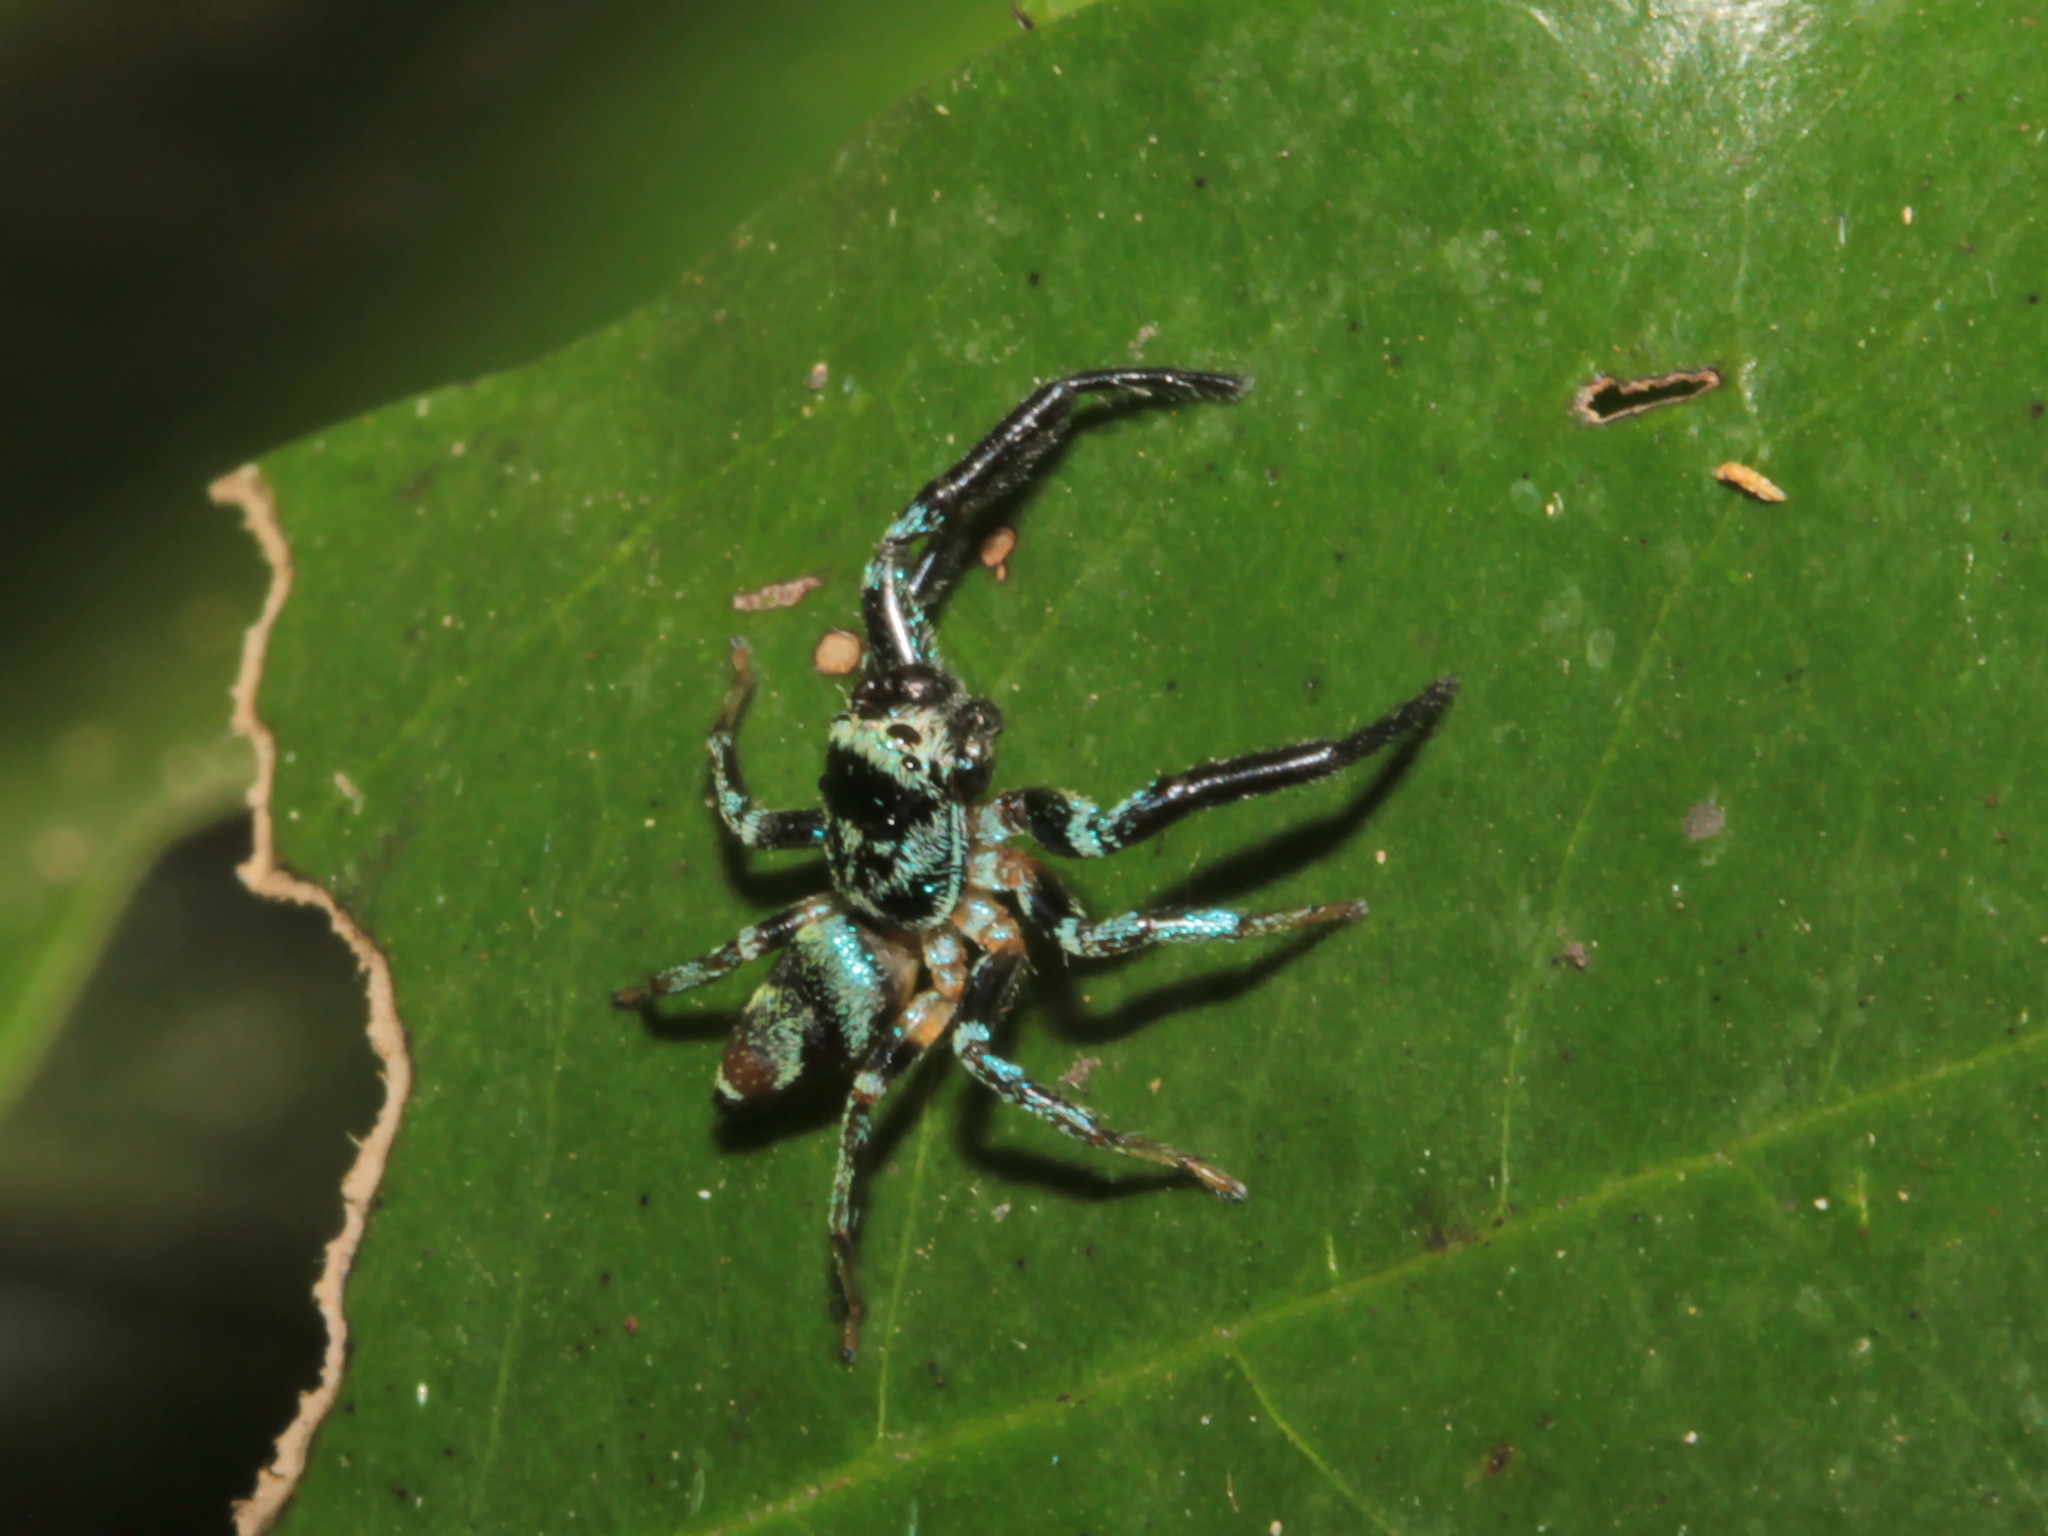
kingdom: Animalia
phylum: Arthropoda
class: Arachnida
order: Araneae
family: Salticidae
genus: Thiania
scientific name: Thiania bhamoensis
